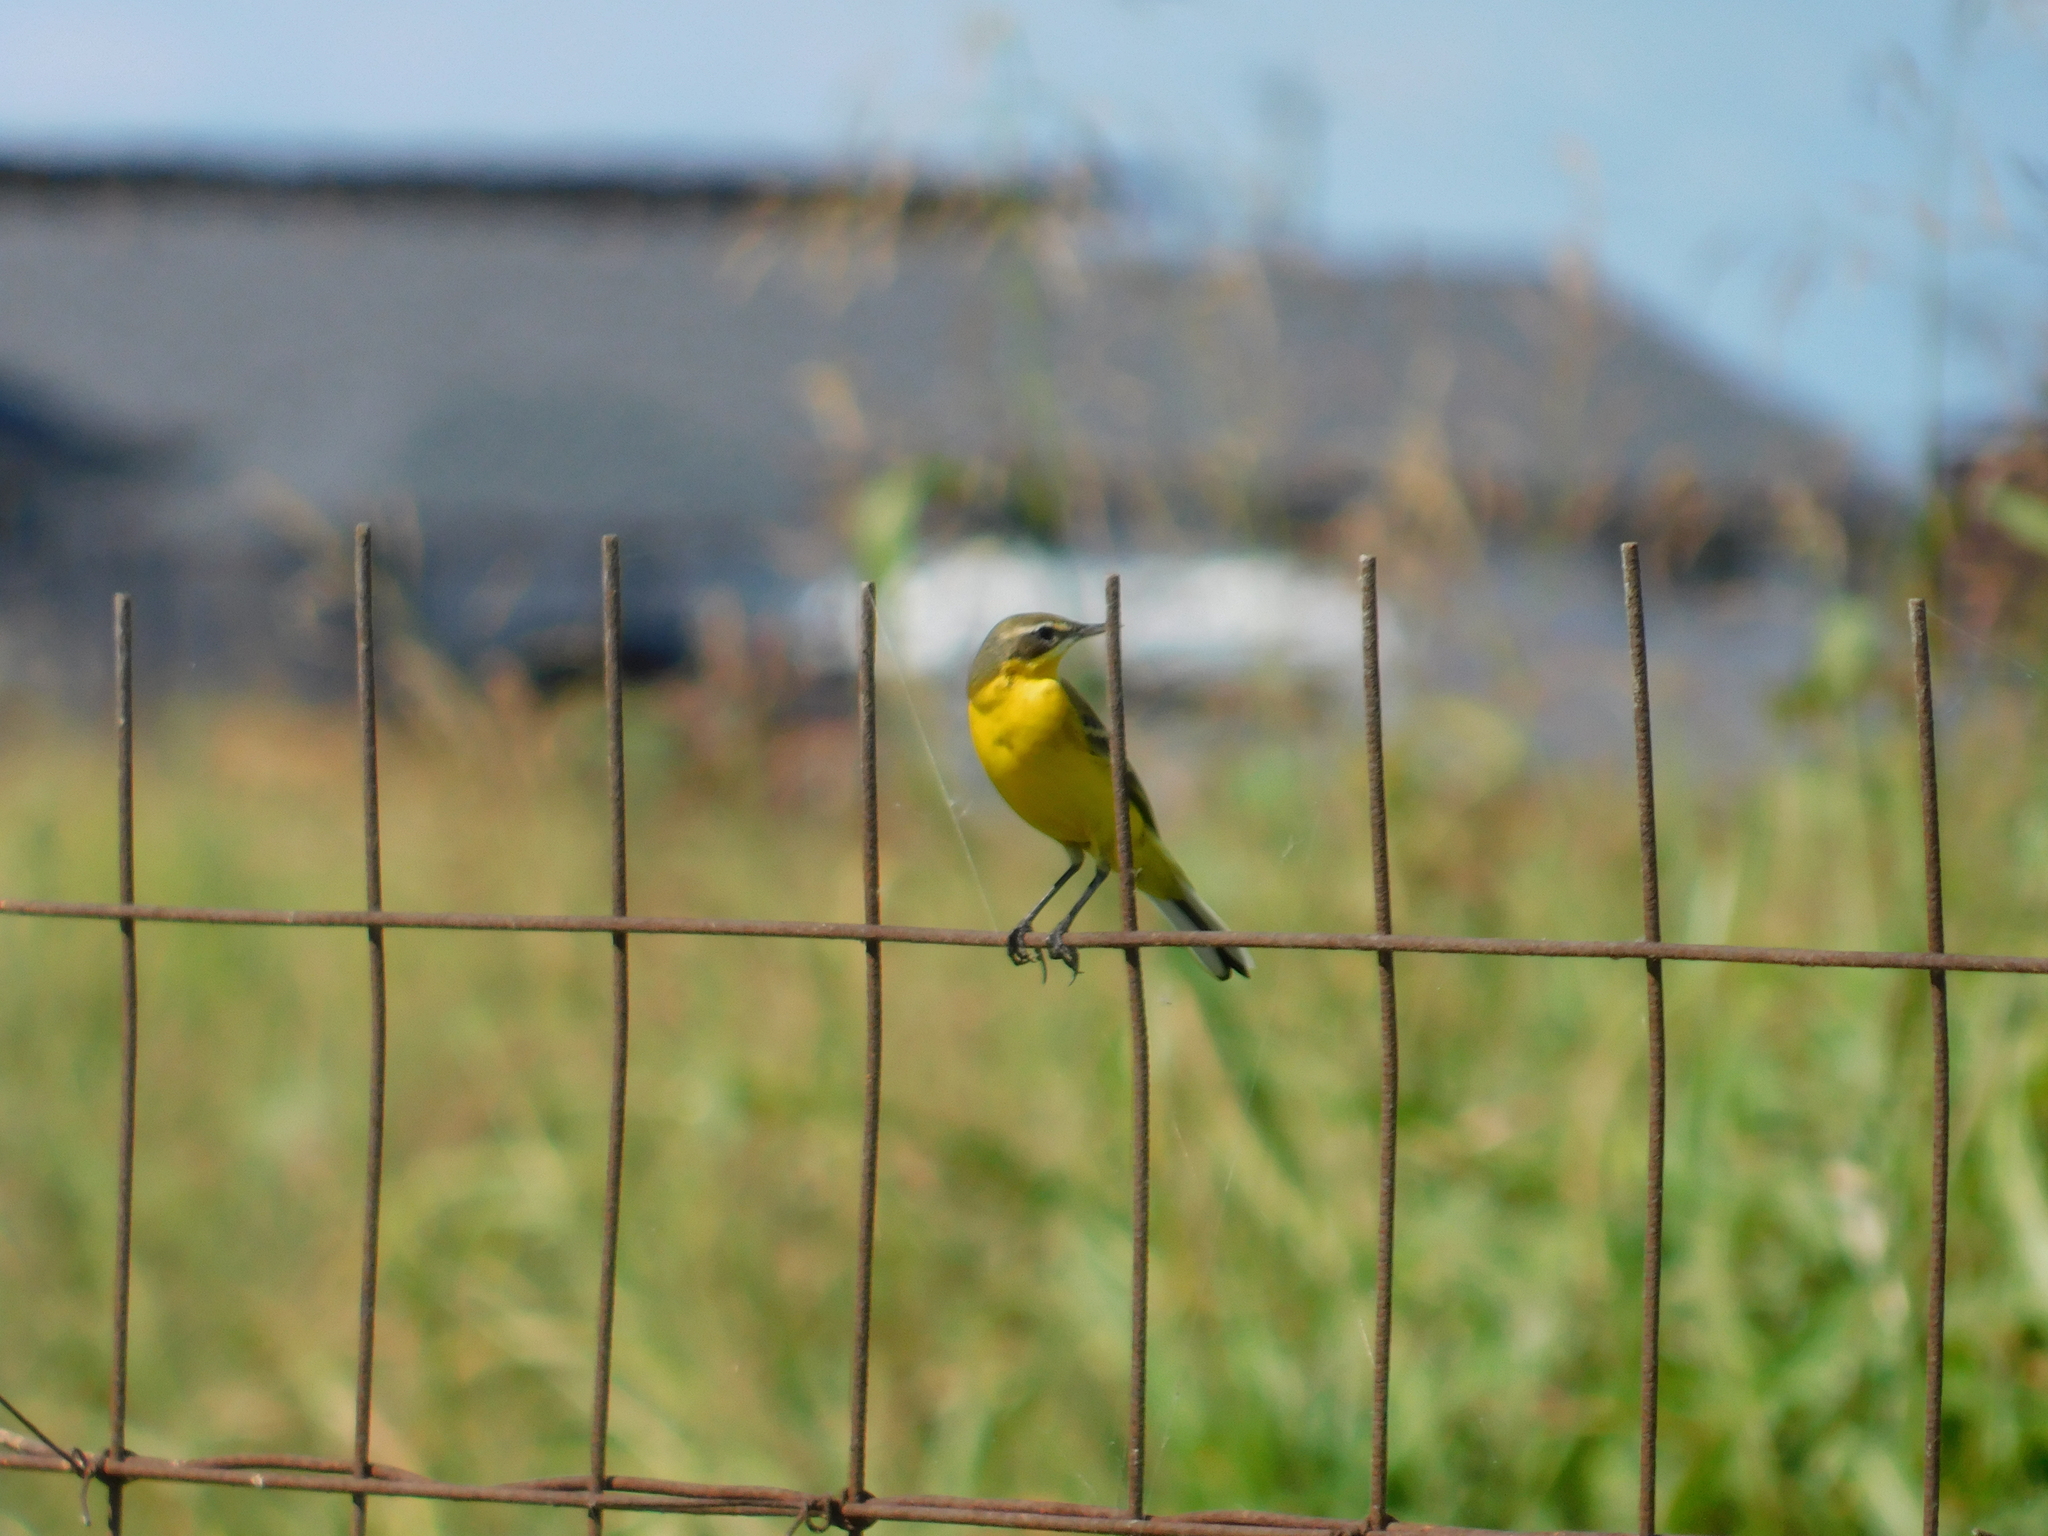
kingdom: Animalia
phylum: Chordata
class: Aves
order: Passeriformes
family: Motacillidae
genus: Motacilla
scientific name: Motacilla flava
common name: Western yellow wagtail
